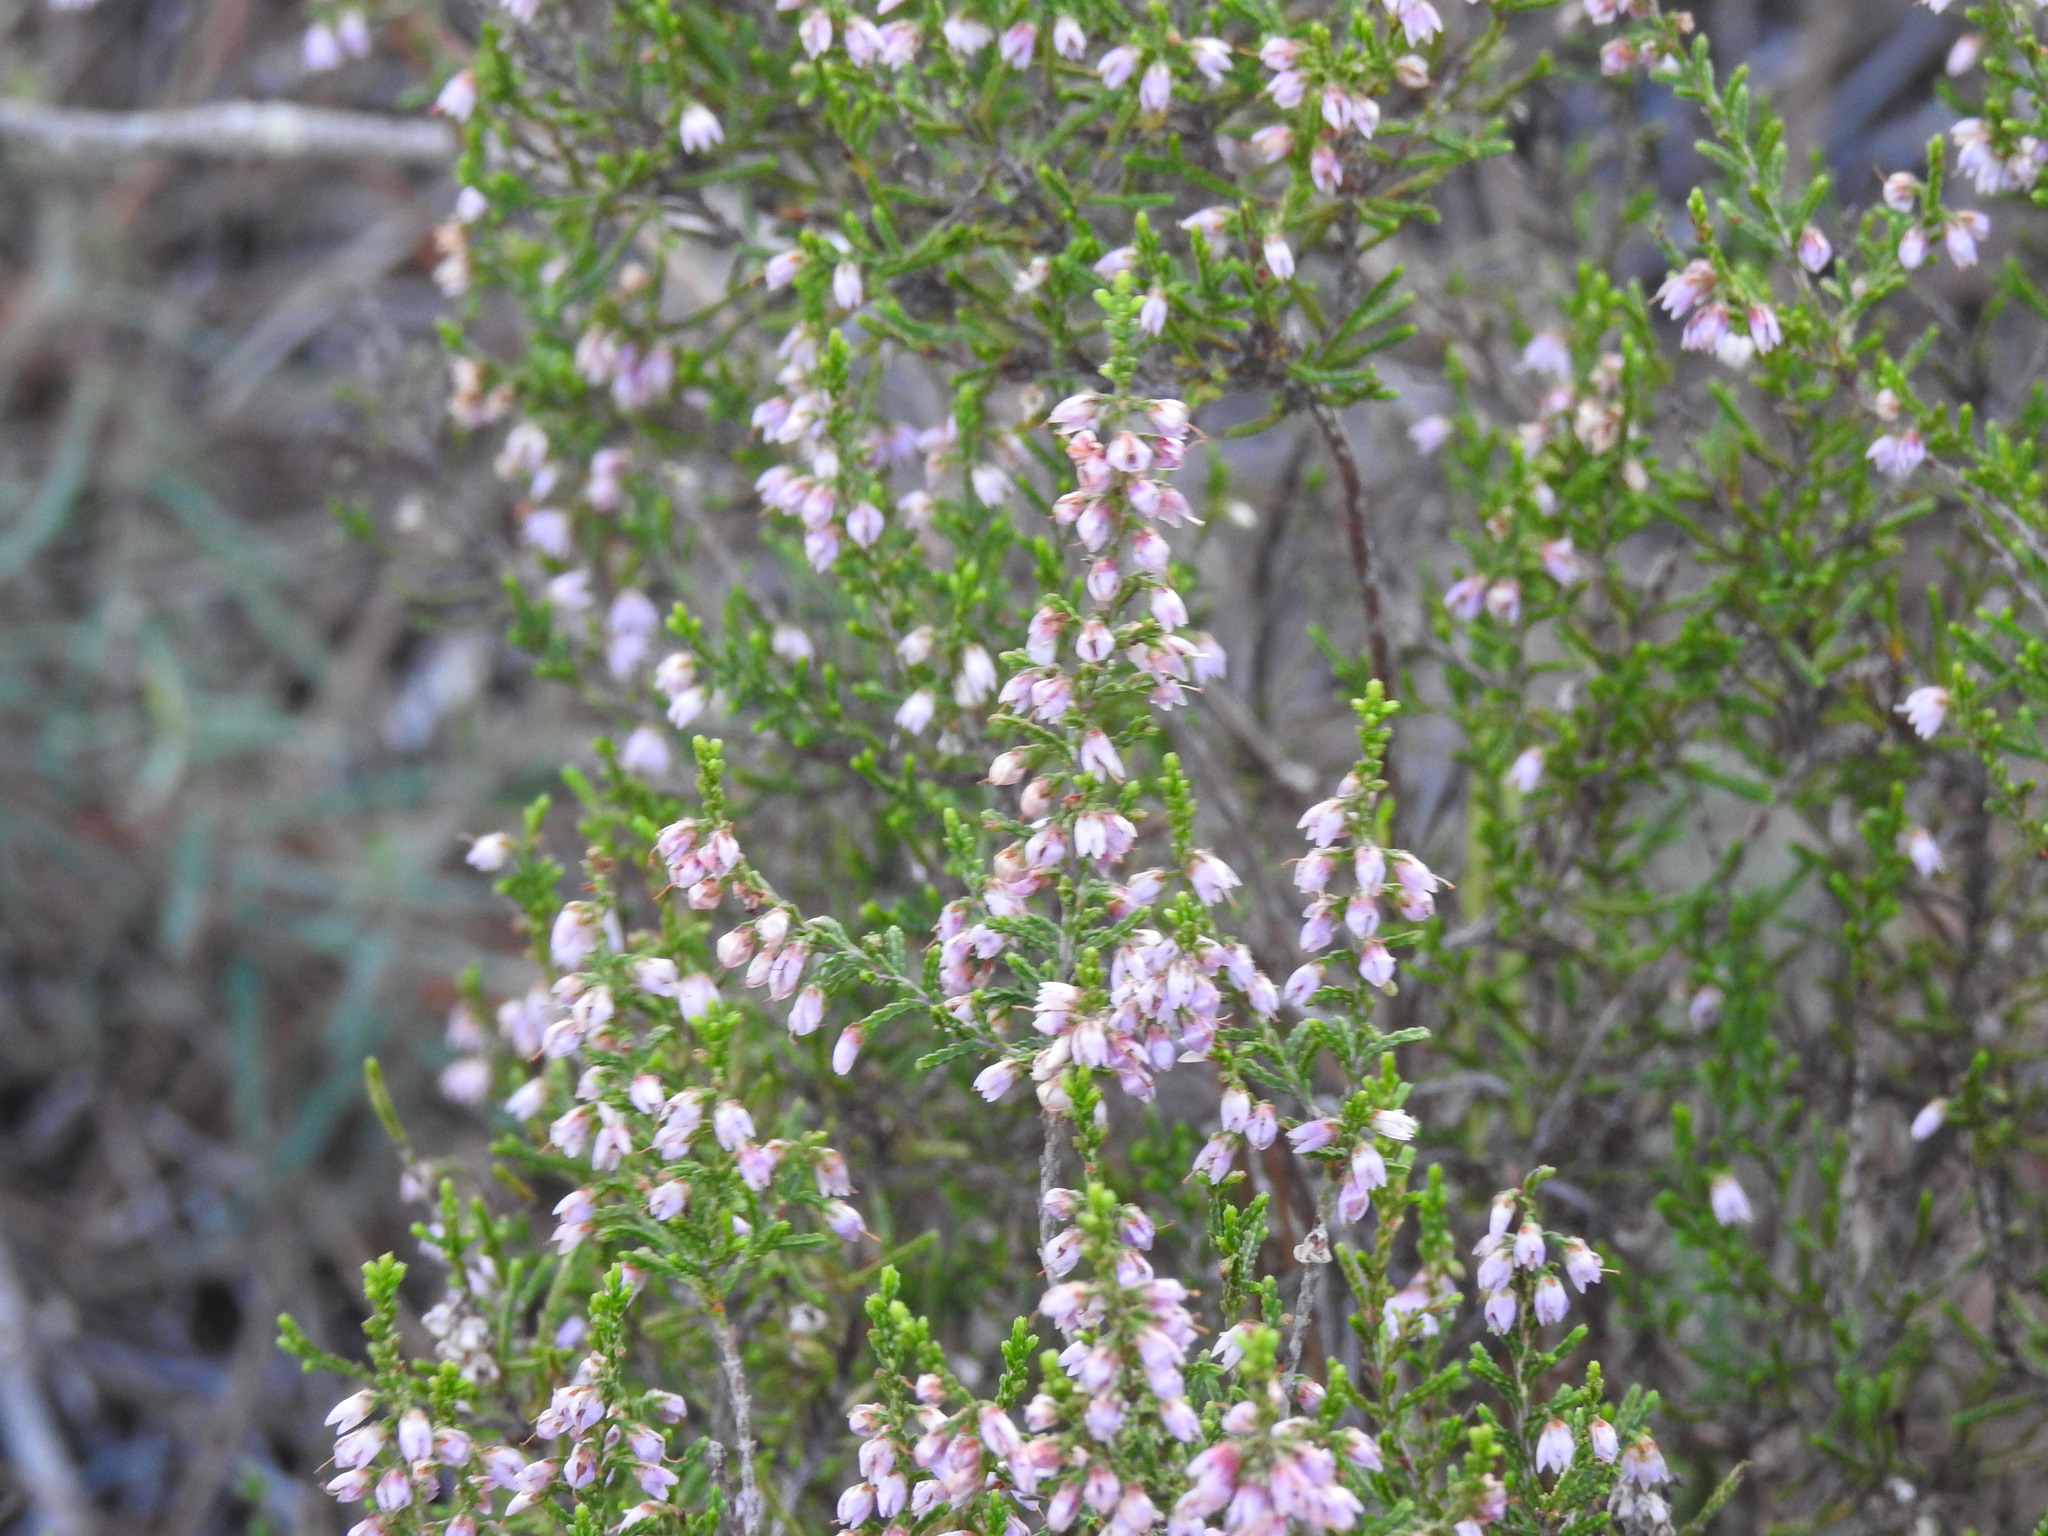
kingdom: Plantae
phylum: Tracheophyta
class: Magnoliopsida
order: Ericales
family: Ericaceae
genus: Calluna
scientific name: Calluna vulgaris
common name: Heather
